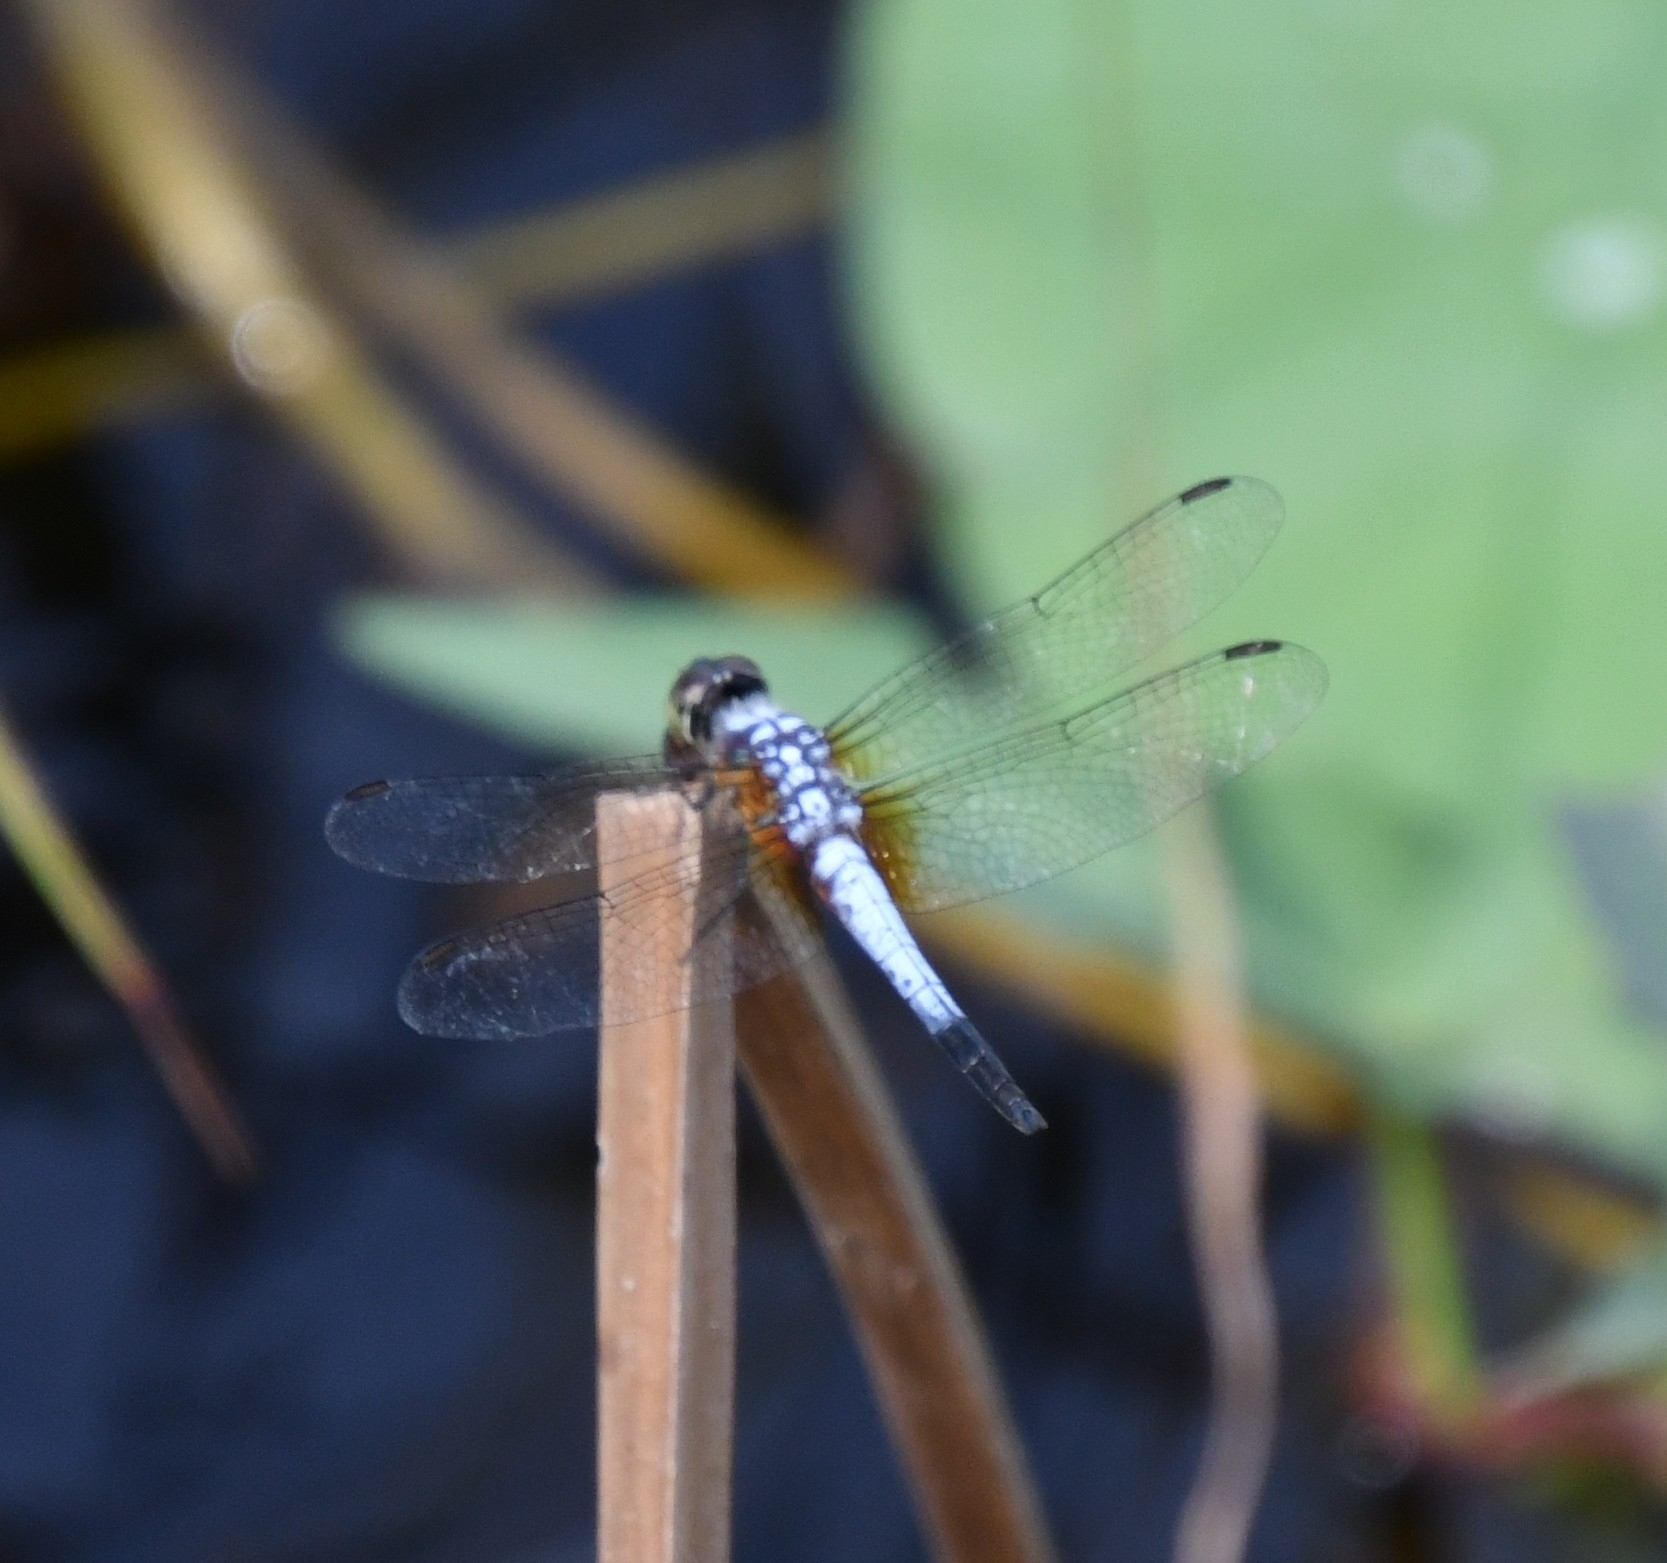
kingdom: Animalia
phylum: Arthropoda
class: Insecta
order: Odonata
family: Libellulidae
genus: Brachydiplax
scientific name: Brachydiplax chalybea
